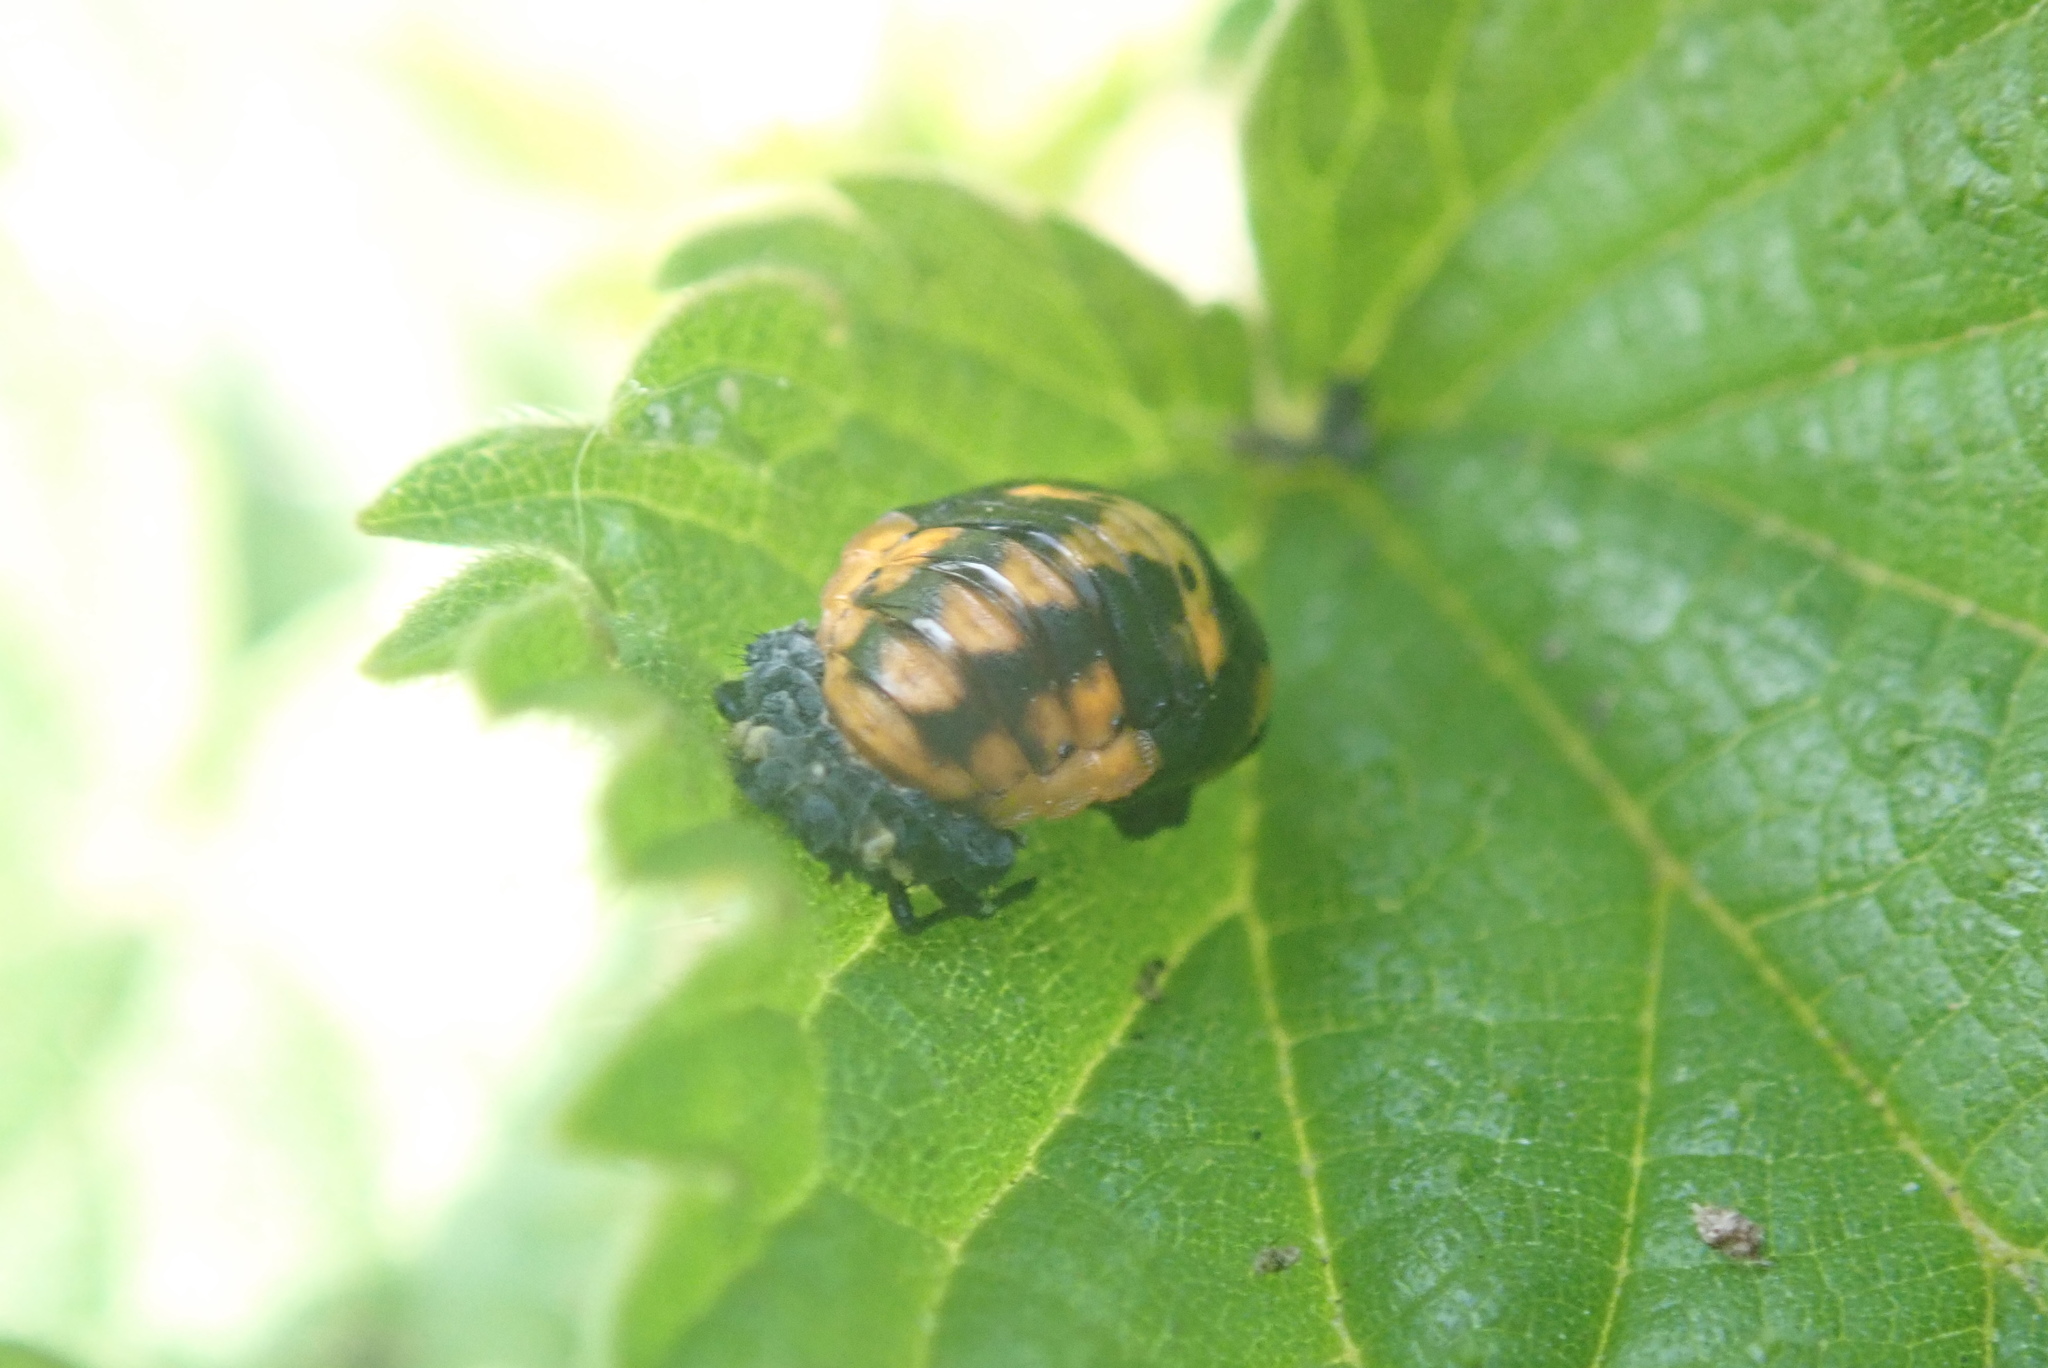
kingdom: Animalia
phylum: Arthropoda
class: Insecta
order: Coleoptera
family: Coccinellidae
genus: Coccinella
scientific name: Coccinella septempunctata
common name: Sevenspotted lady beetle
